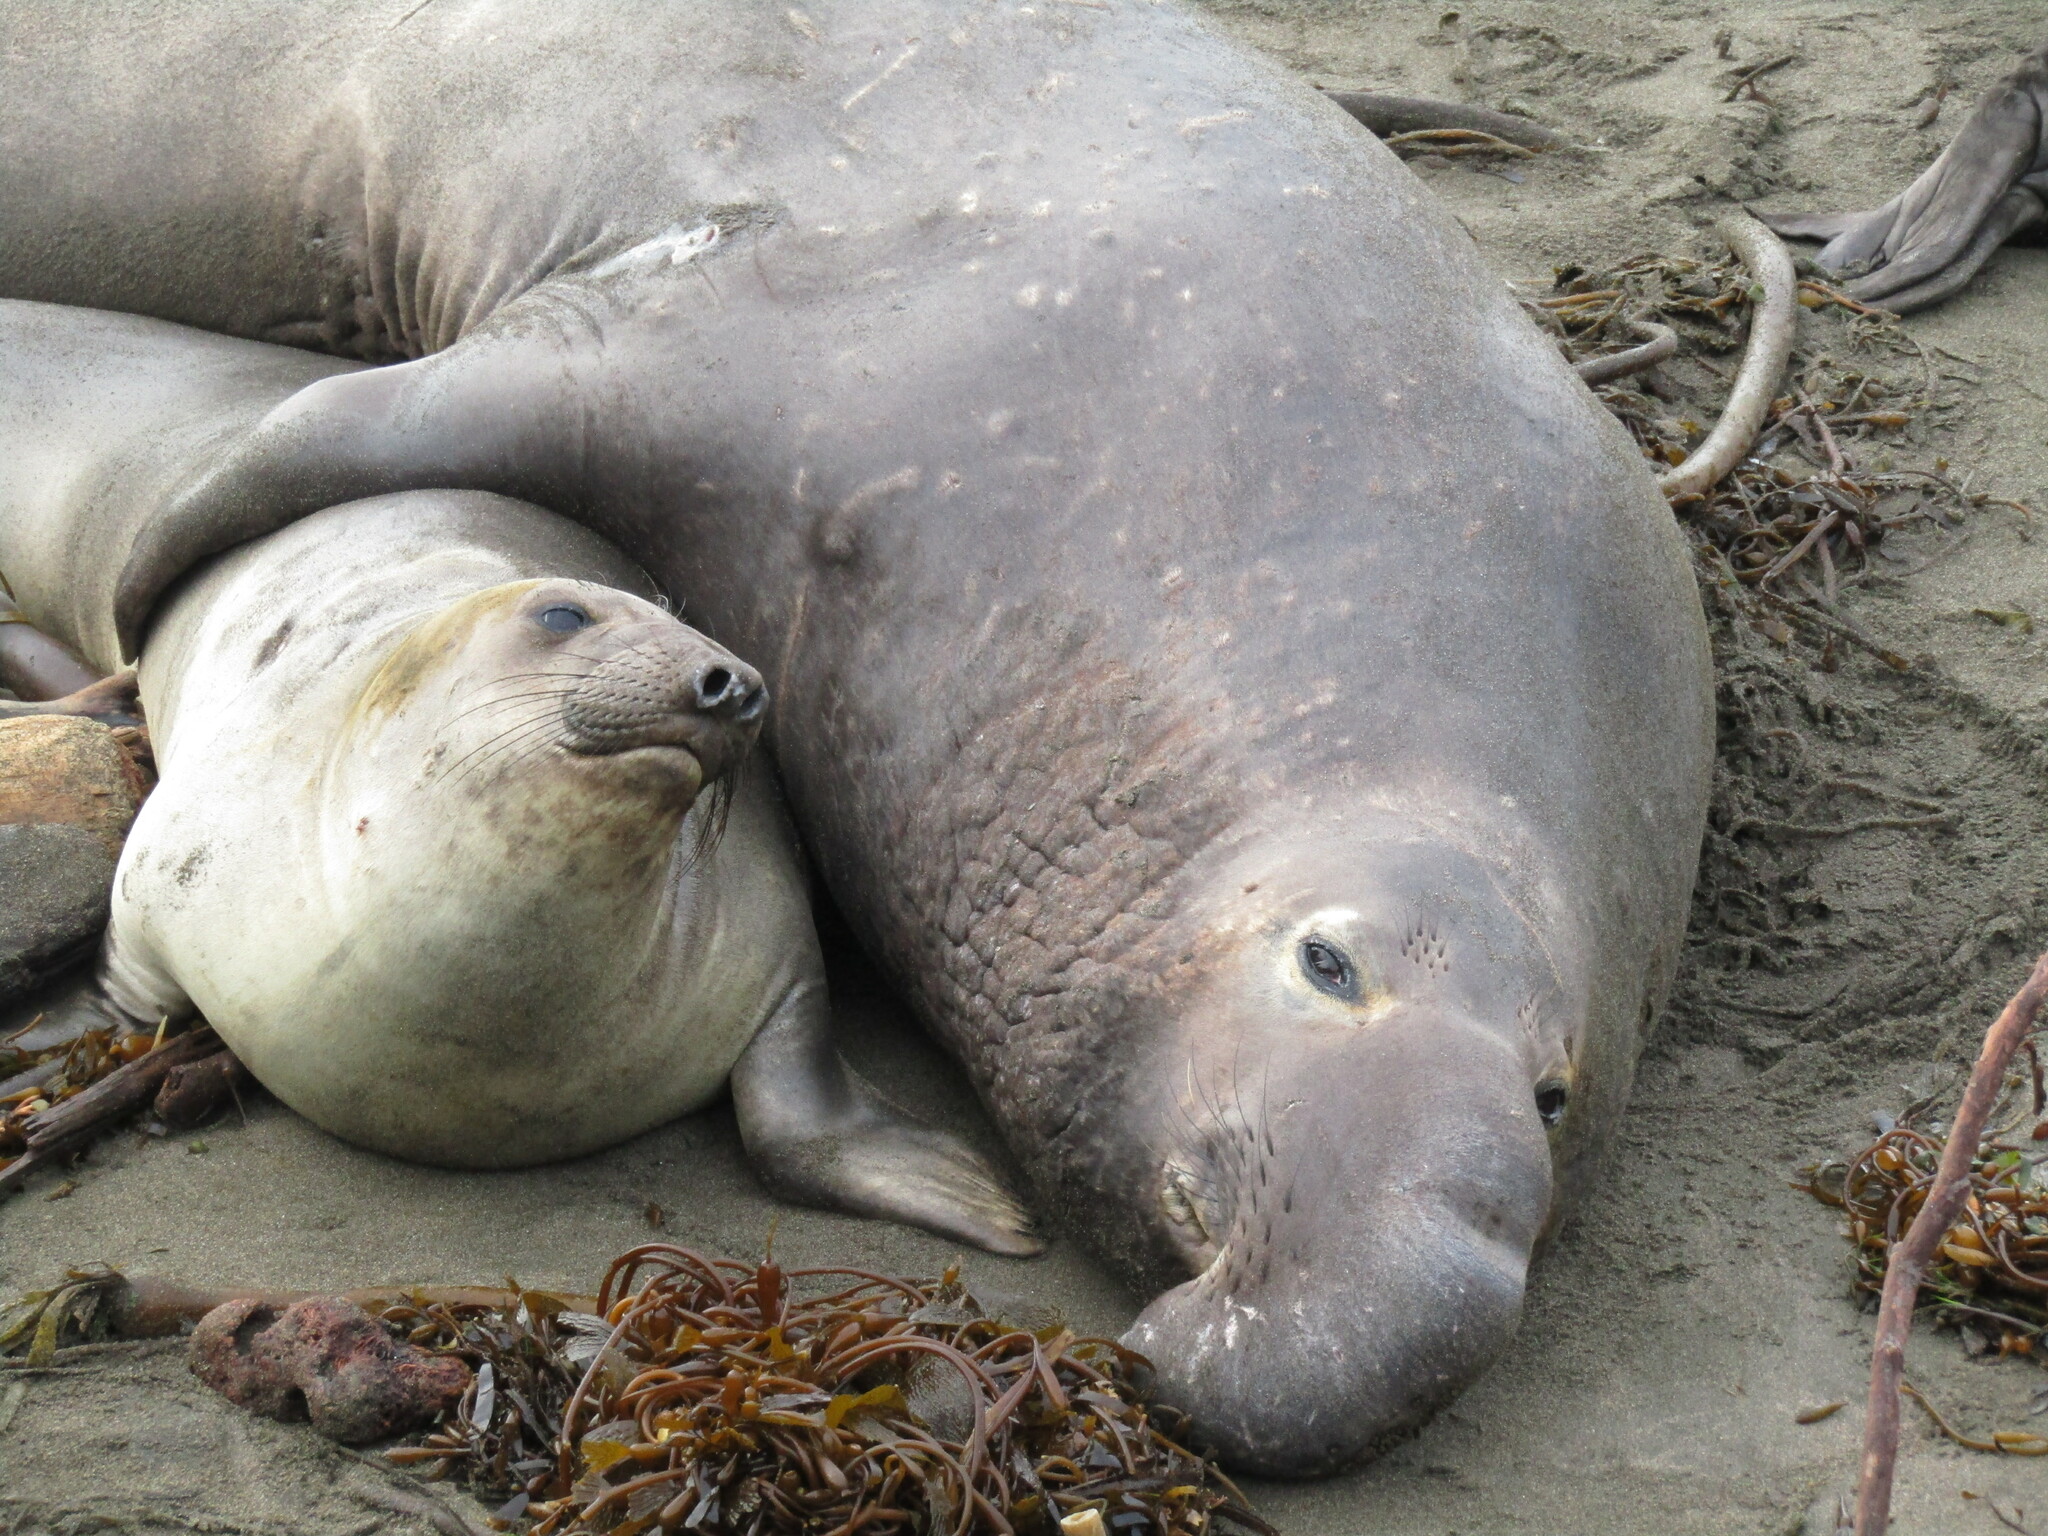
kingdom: Animalia
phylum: Chordata
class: Mammalia
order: Carnivora
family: Phocidae
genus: Mirounga
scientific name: Mirounga angustirostris
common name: Northern elephant seal
